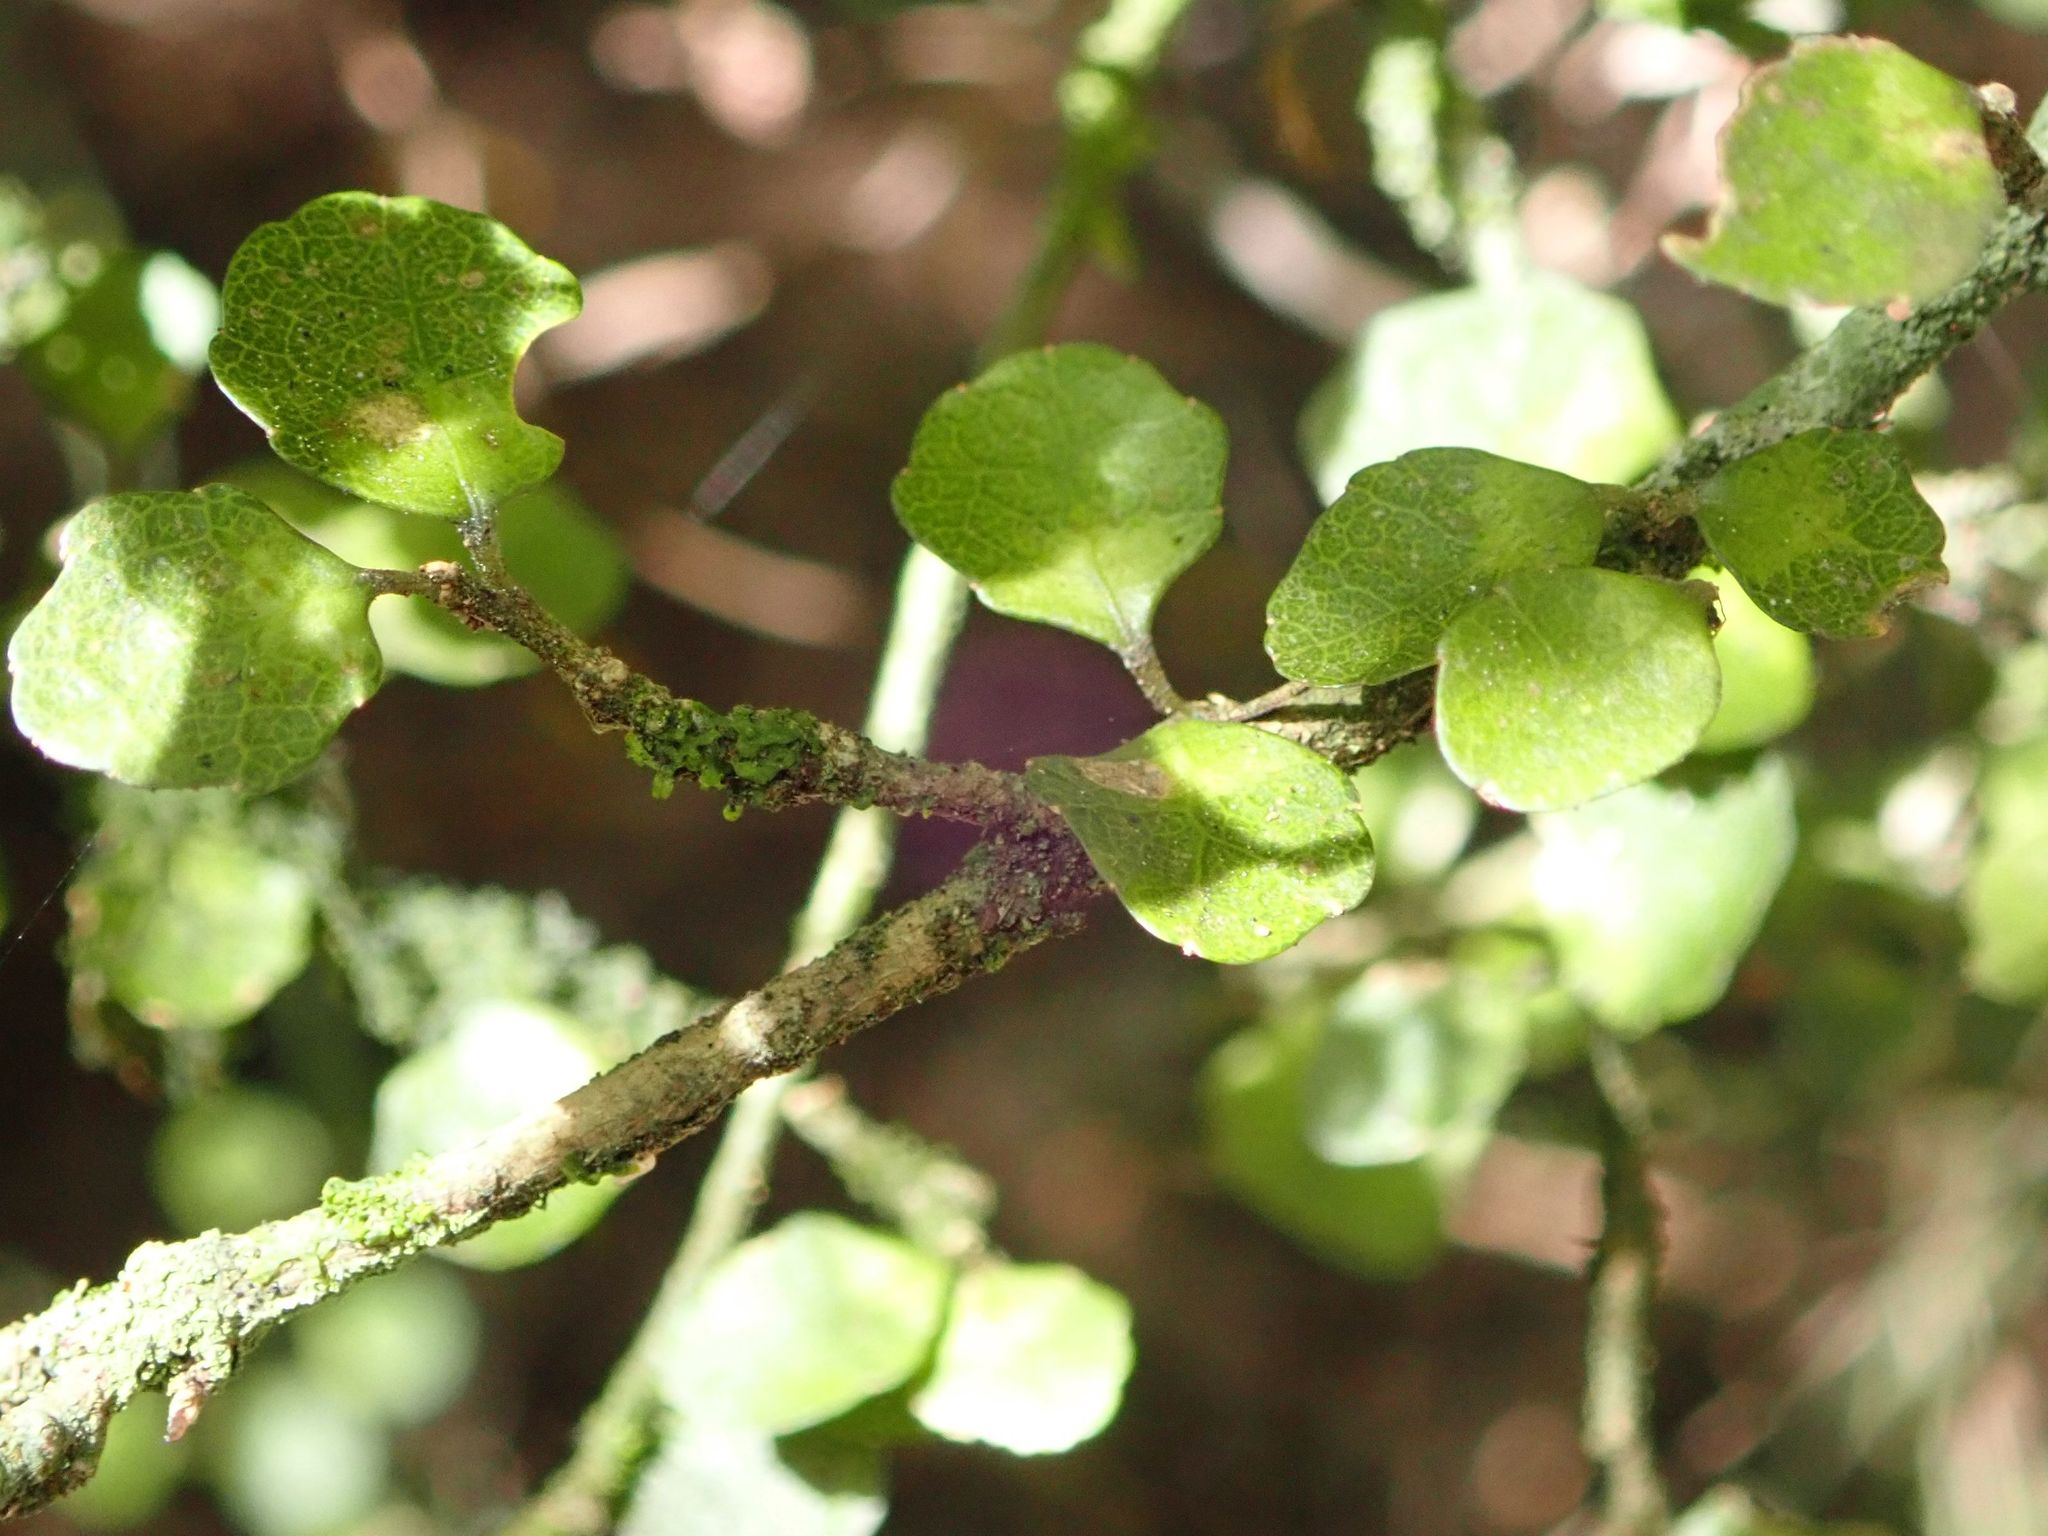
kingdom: Plantae
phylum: Tracheophyta
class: Magnoliopsida
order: Malpighiales
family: Violaceae
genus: Melicytus
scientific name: Melicytus micranthus
